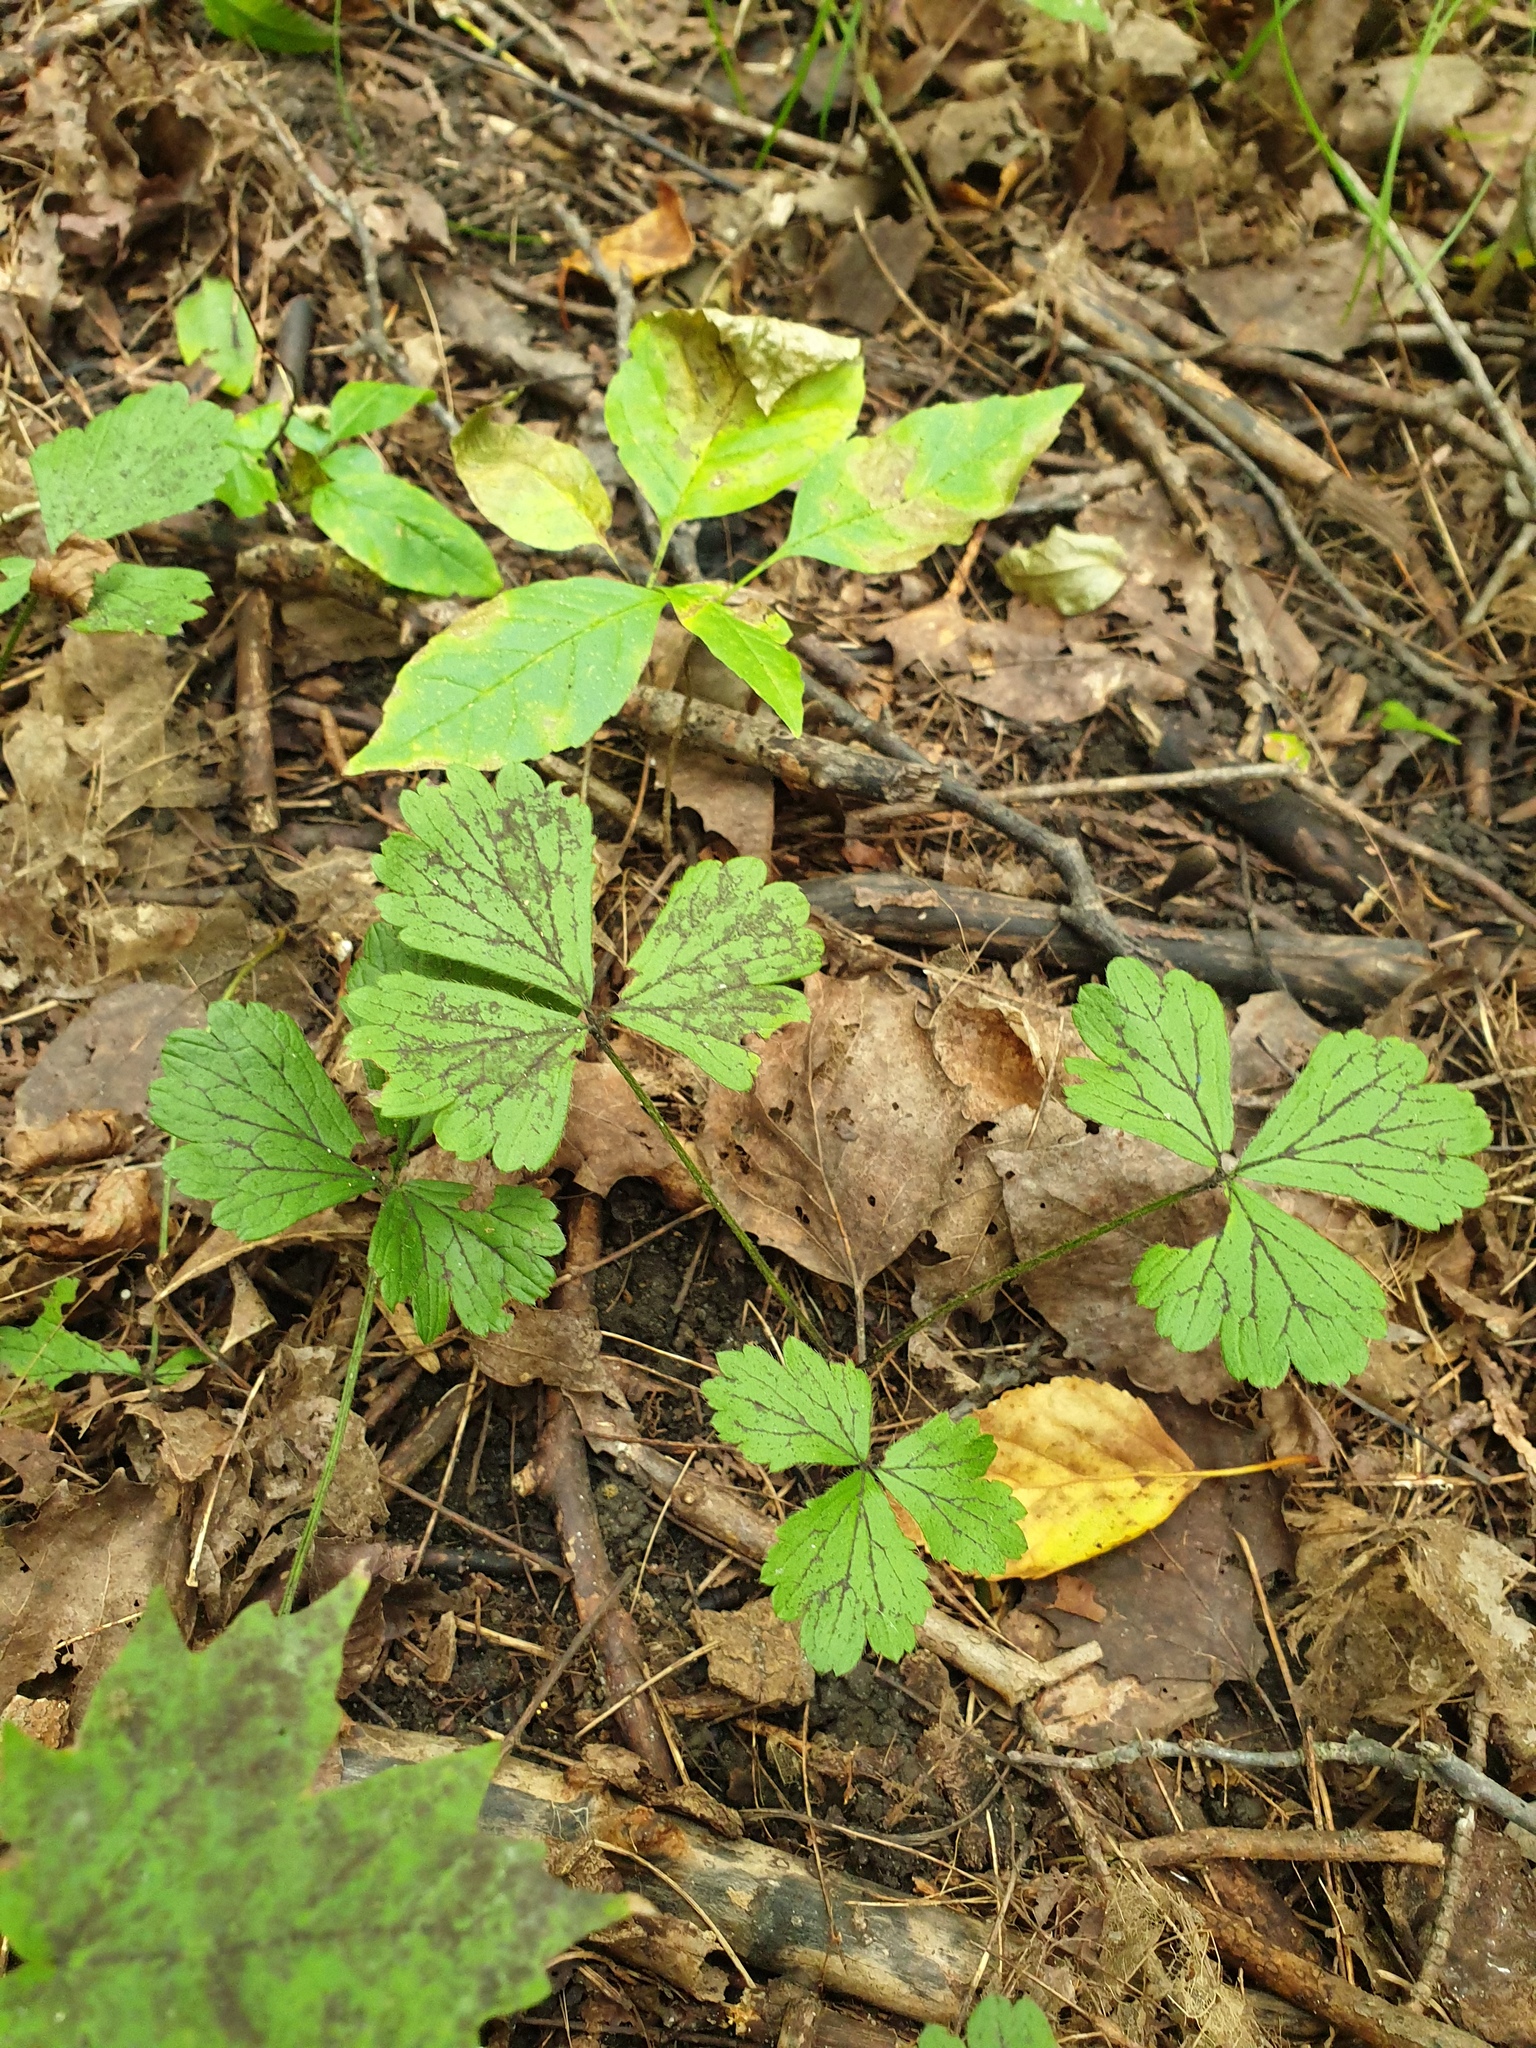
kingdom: Plantae
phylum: Tracheophyta
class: Magnoliopsida
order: Rosales
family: Rosaceae
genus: Geum
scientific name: Geum fragarioides
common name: Appalachian barren strawberry
